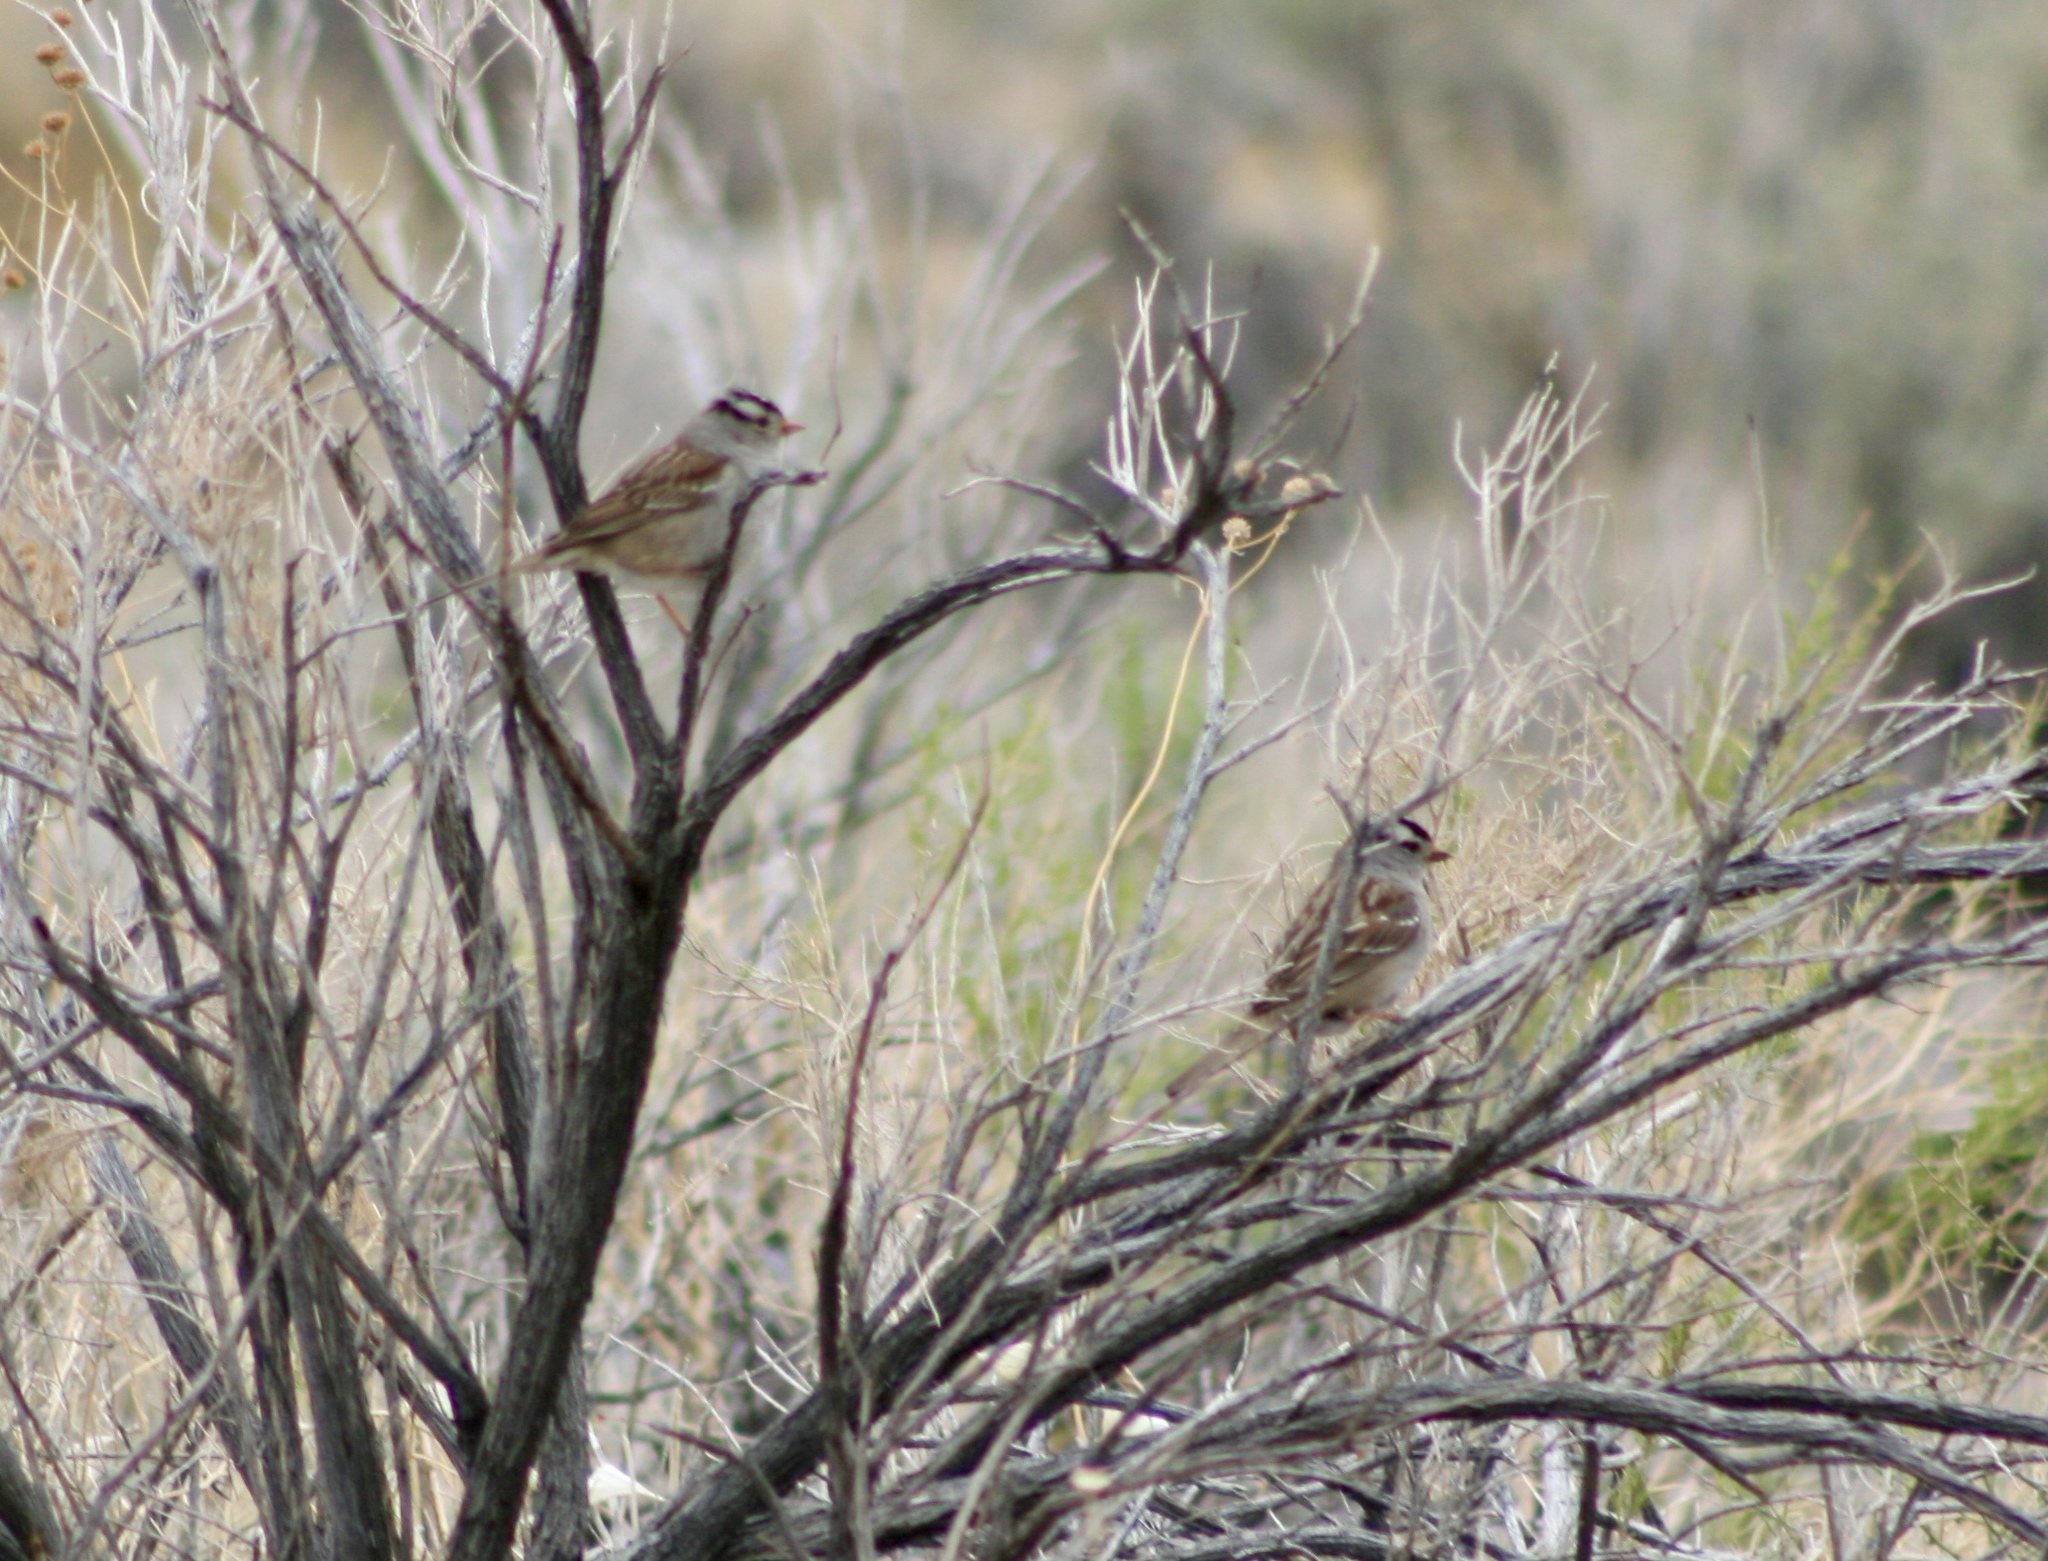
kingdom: Animalia
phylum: Chordata
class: Aves
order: Passeriformes
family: Passerellidae
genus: Zonotrichia
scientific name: Zonotrichia leucophrys
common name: White-crowned sparrow
